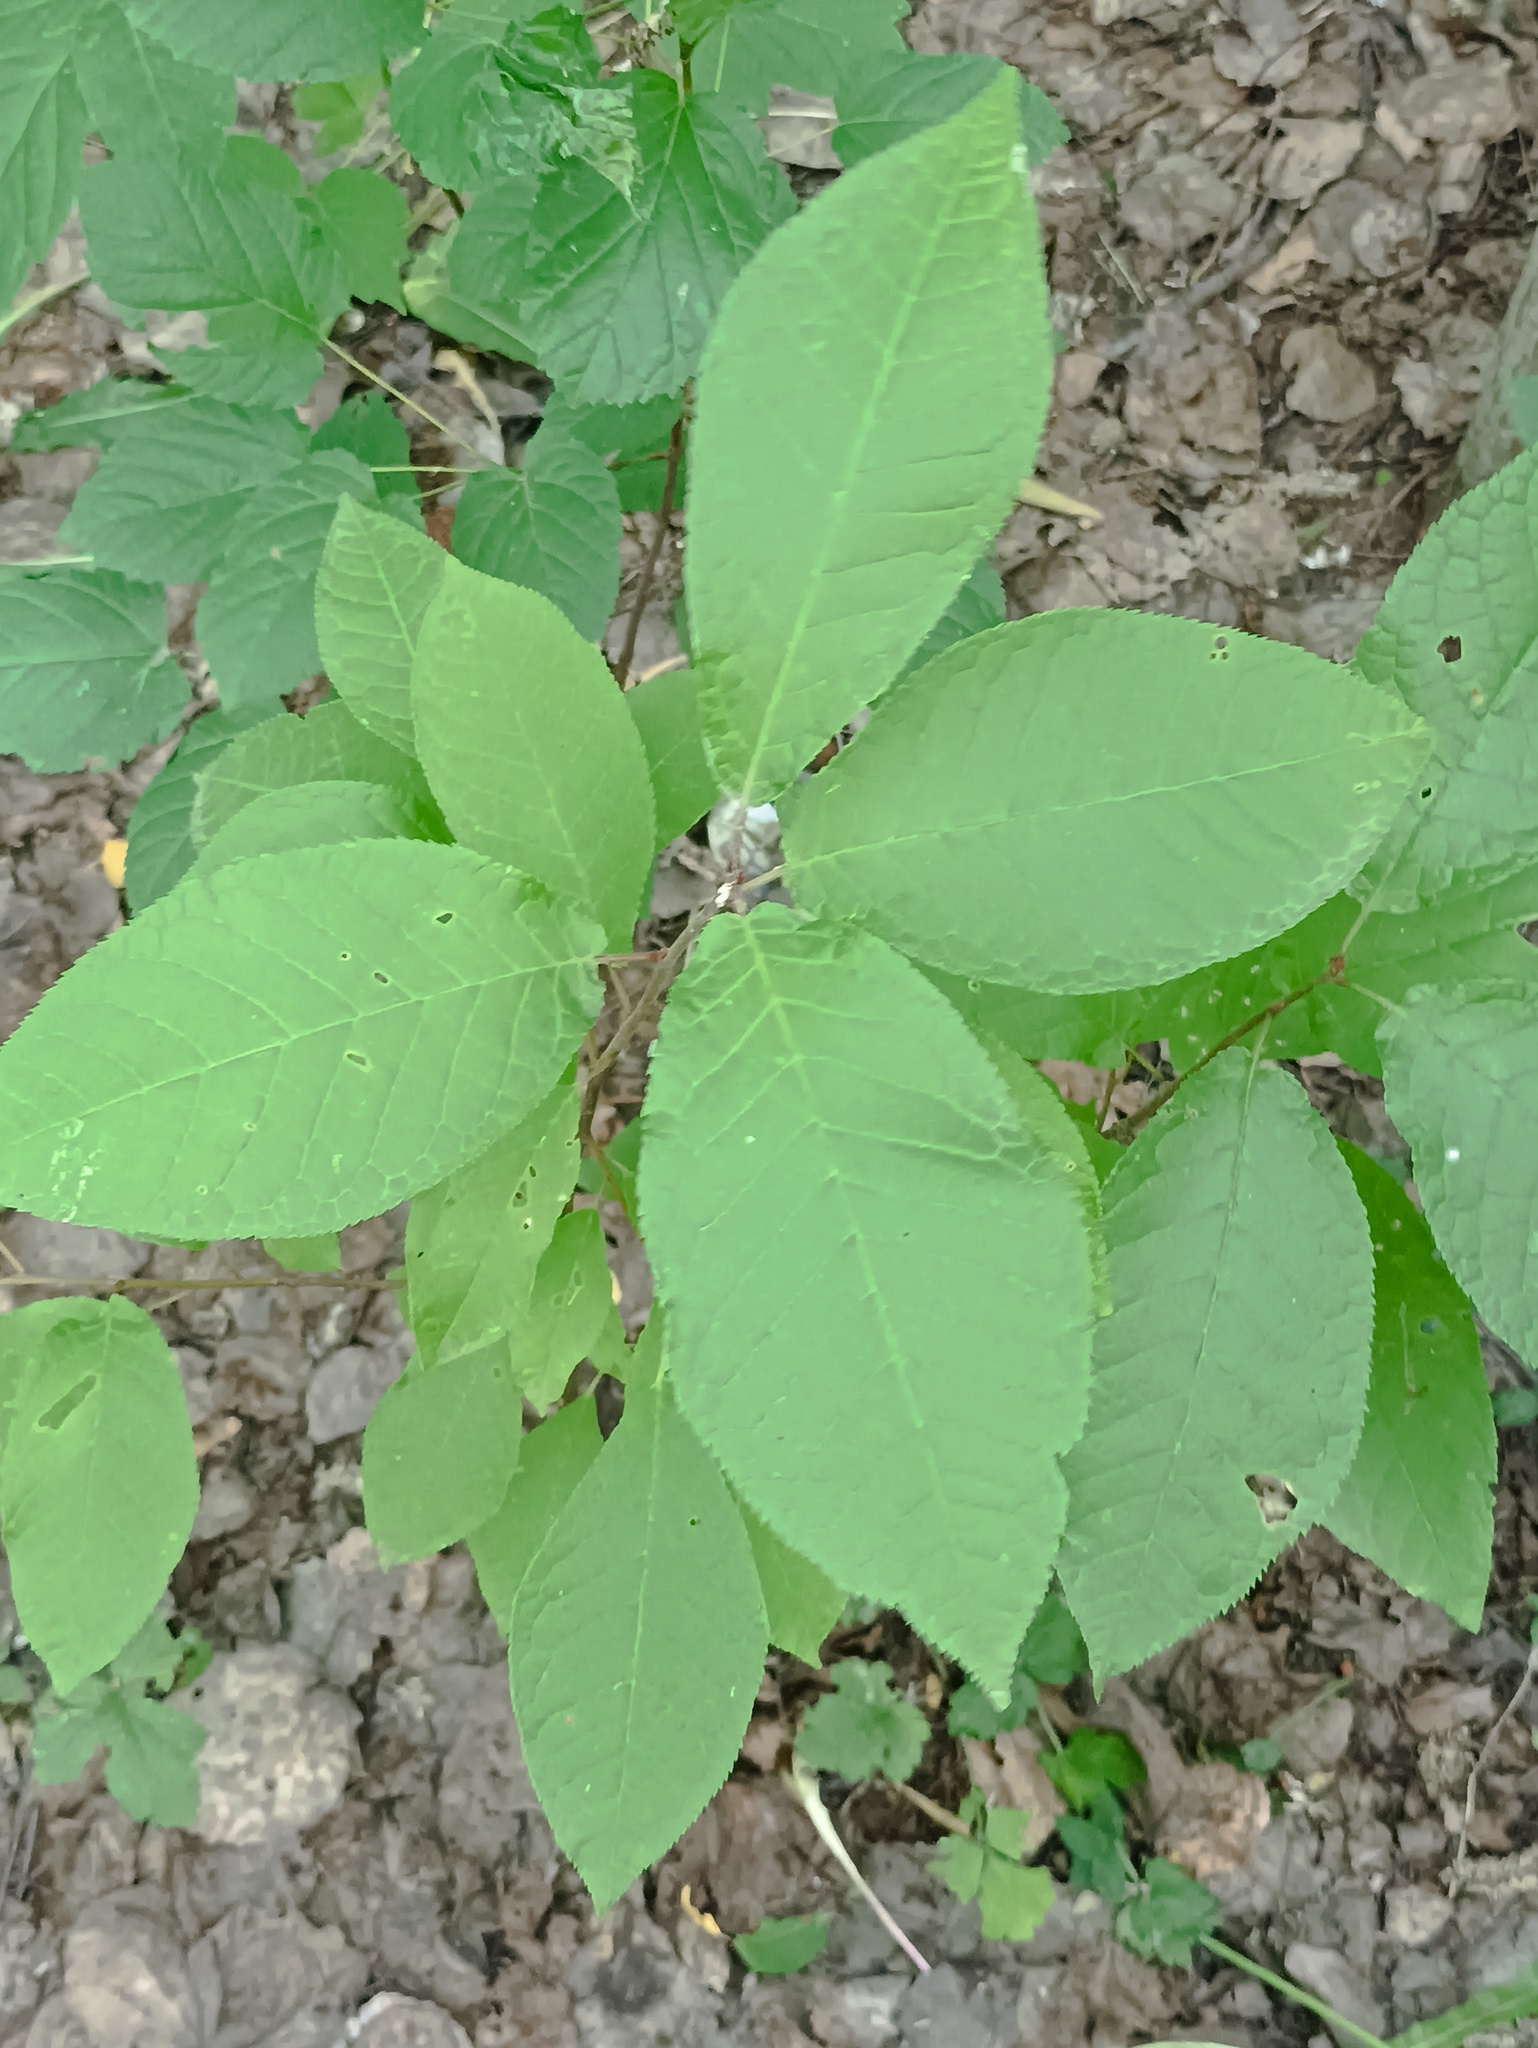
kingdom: Plantae
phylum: Tracheophyta
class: Magnoliopsida
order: Rosales
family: Rosaceae
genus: Prunus
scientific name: Prunus padus
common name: Bird cherry
